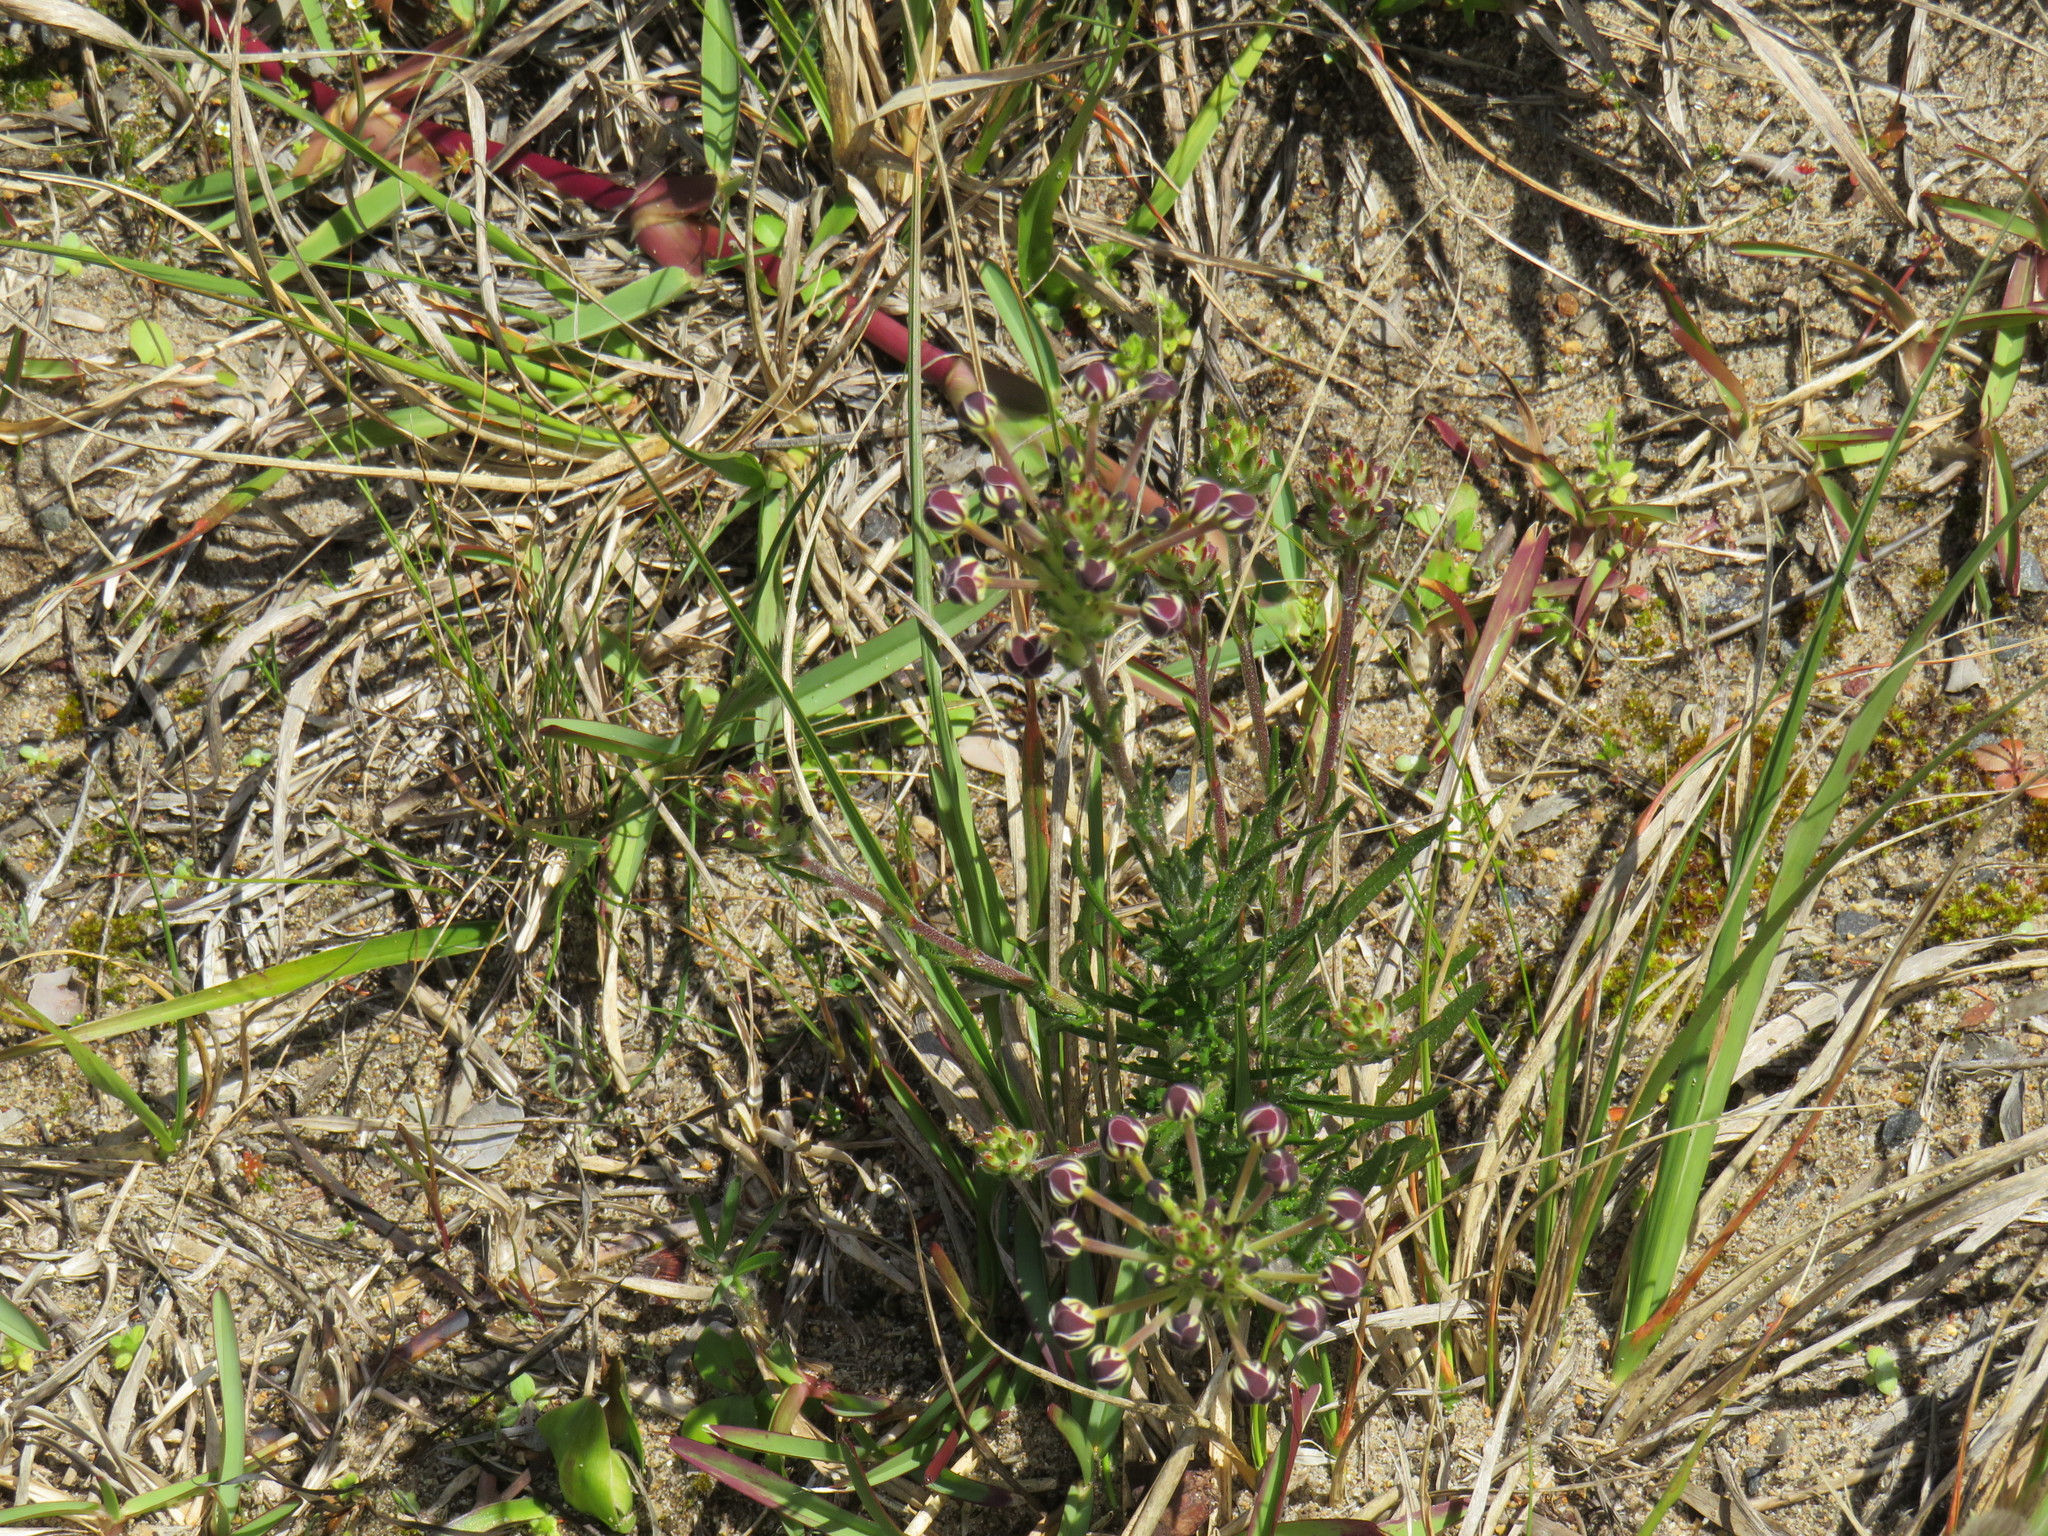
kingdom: Plantae
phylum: Tracheophyta
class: Magnoliopsida
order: Lamiales
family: Scrophulariaceae
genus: Zaluzianskya
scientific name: Zaluzianskya capensis
